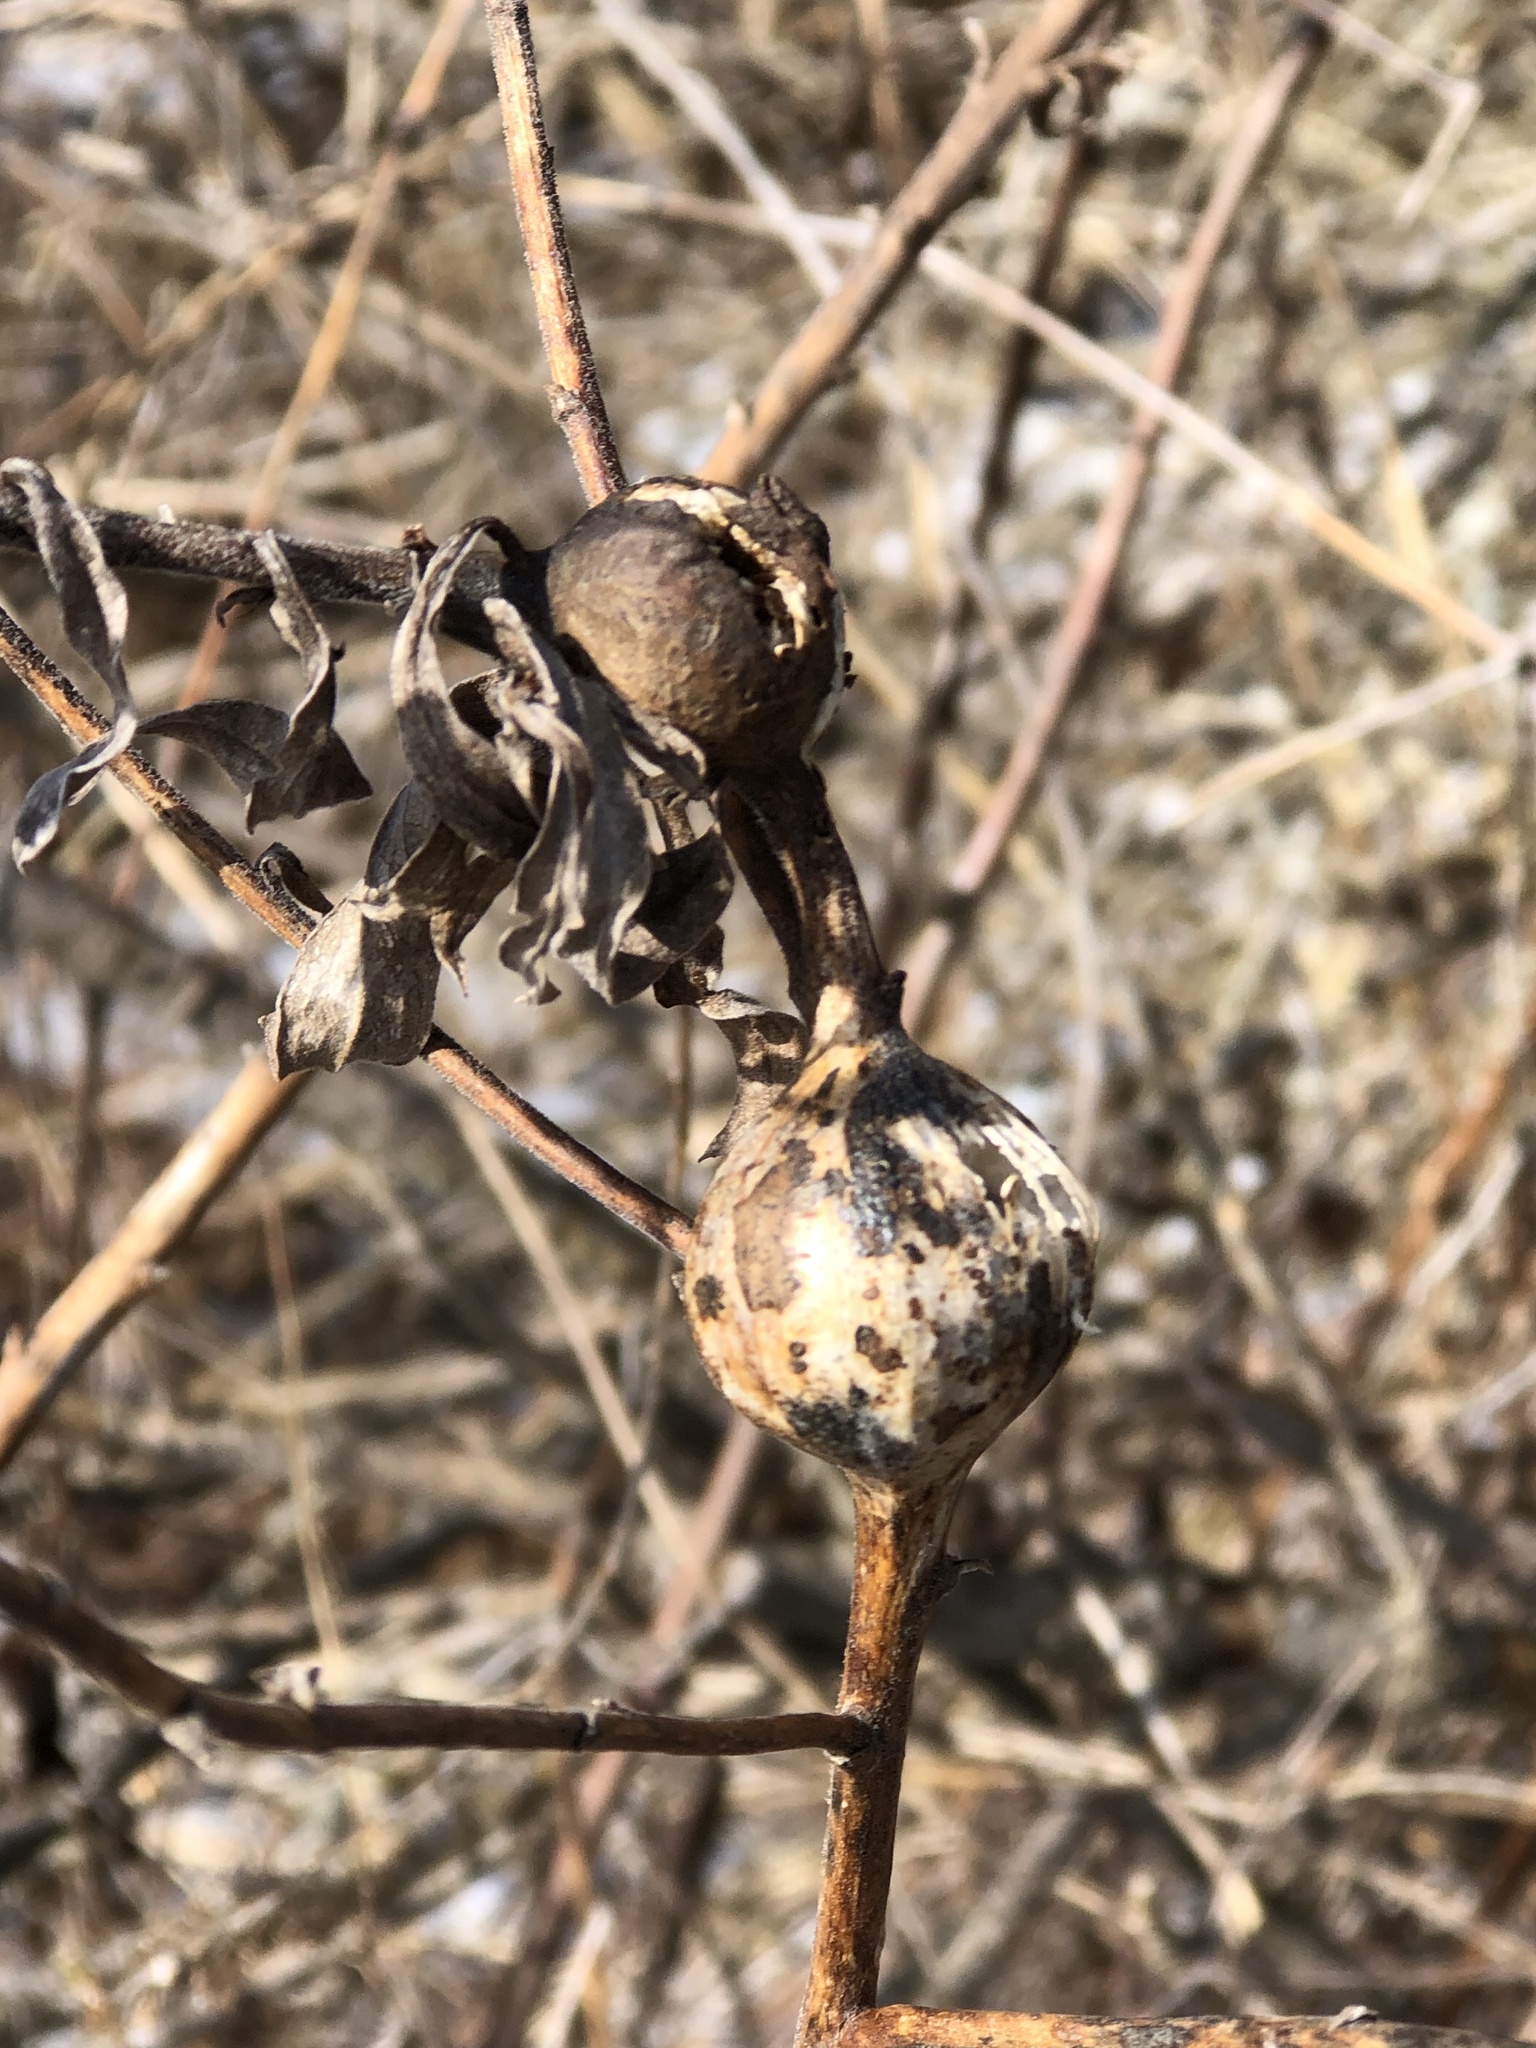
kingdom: Animalia
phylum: Arthropoda
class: Insecta
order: Diptera
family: Tephritidae
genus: Eurosta
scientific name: Eurosta solidaginis
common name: Goldenrod gall fly
